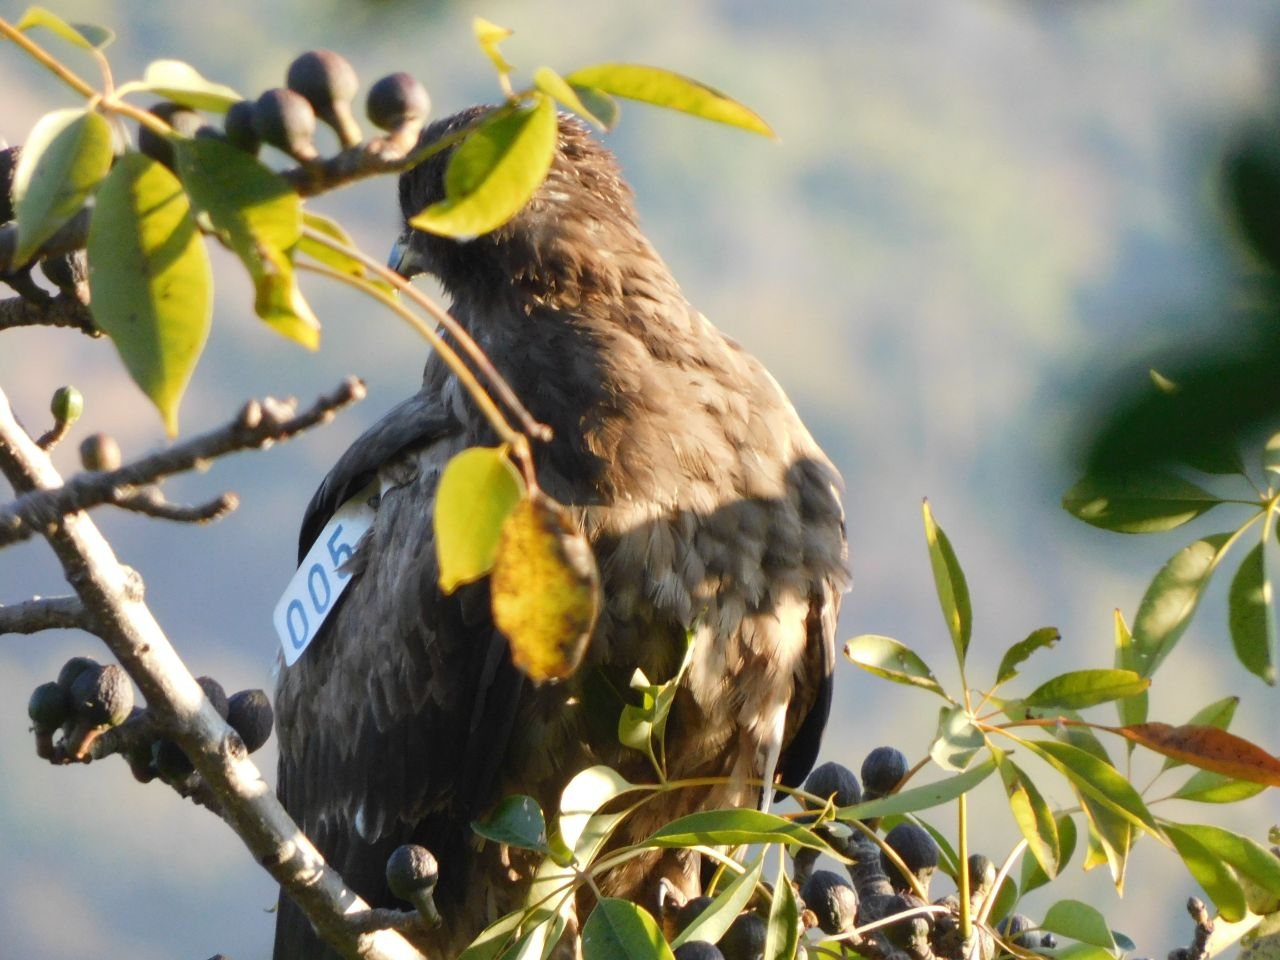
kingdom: Animalia
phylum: Chordata
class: Aves
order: Accipitriformes
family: Accipitridae
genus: Aquila
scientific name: Aquila nipalensis
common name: Steppe eagle
